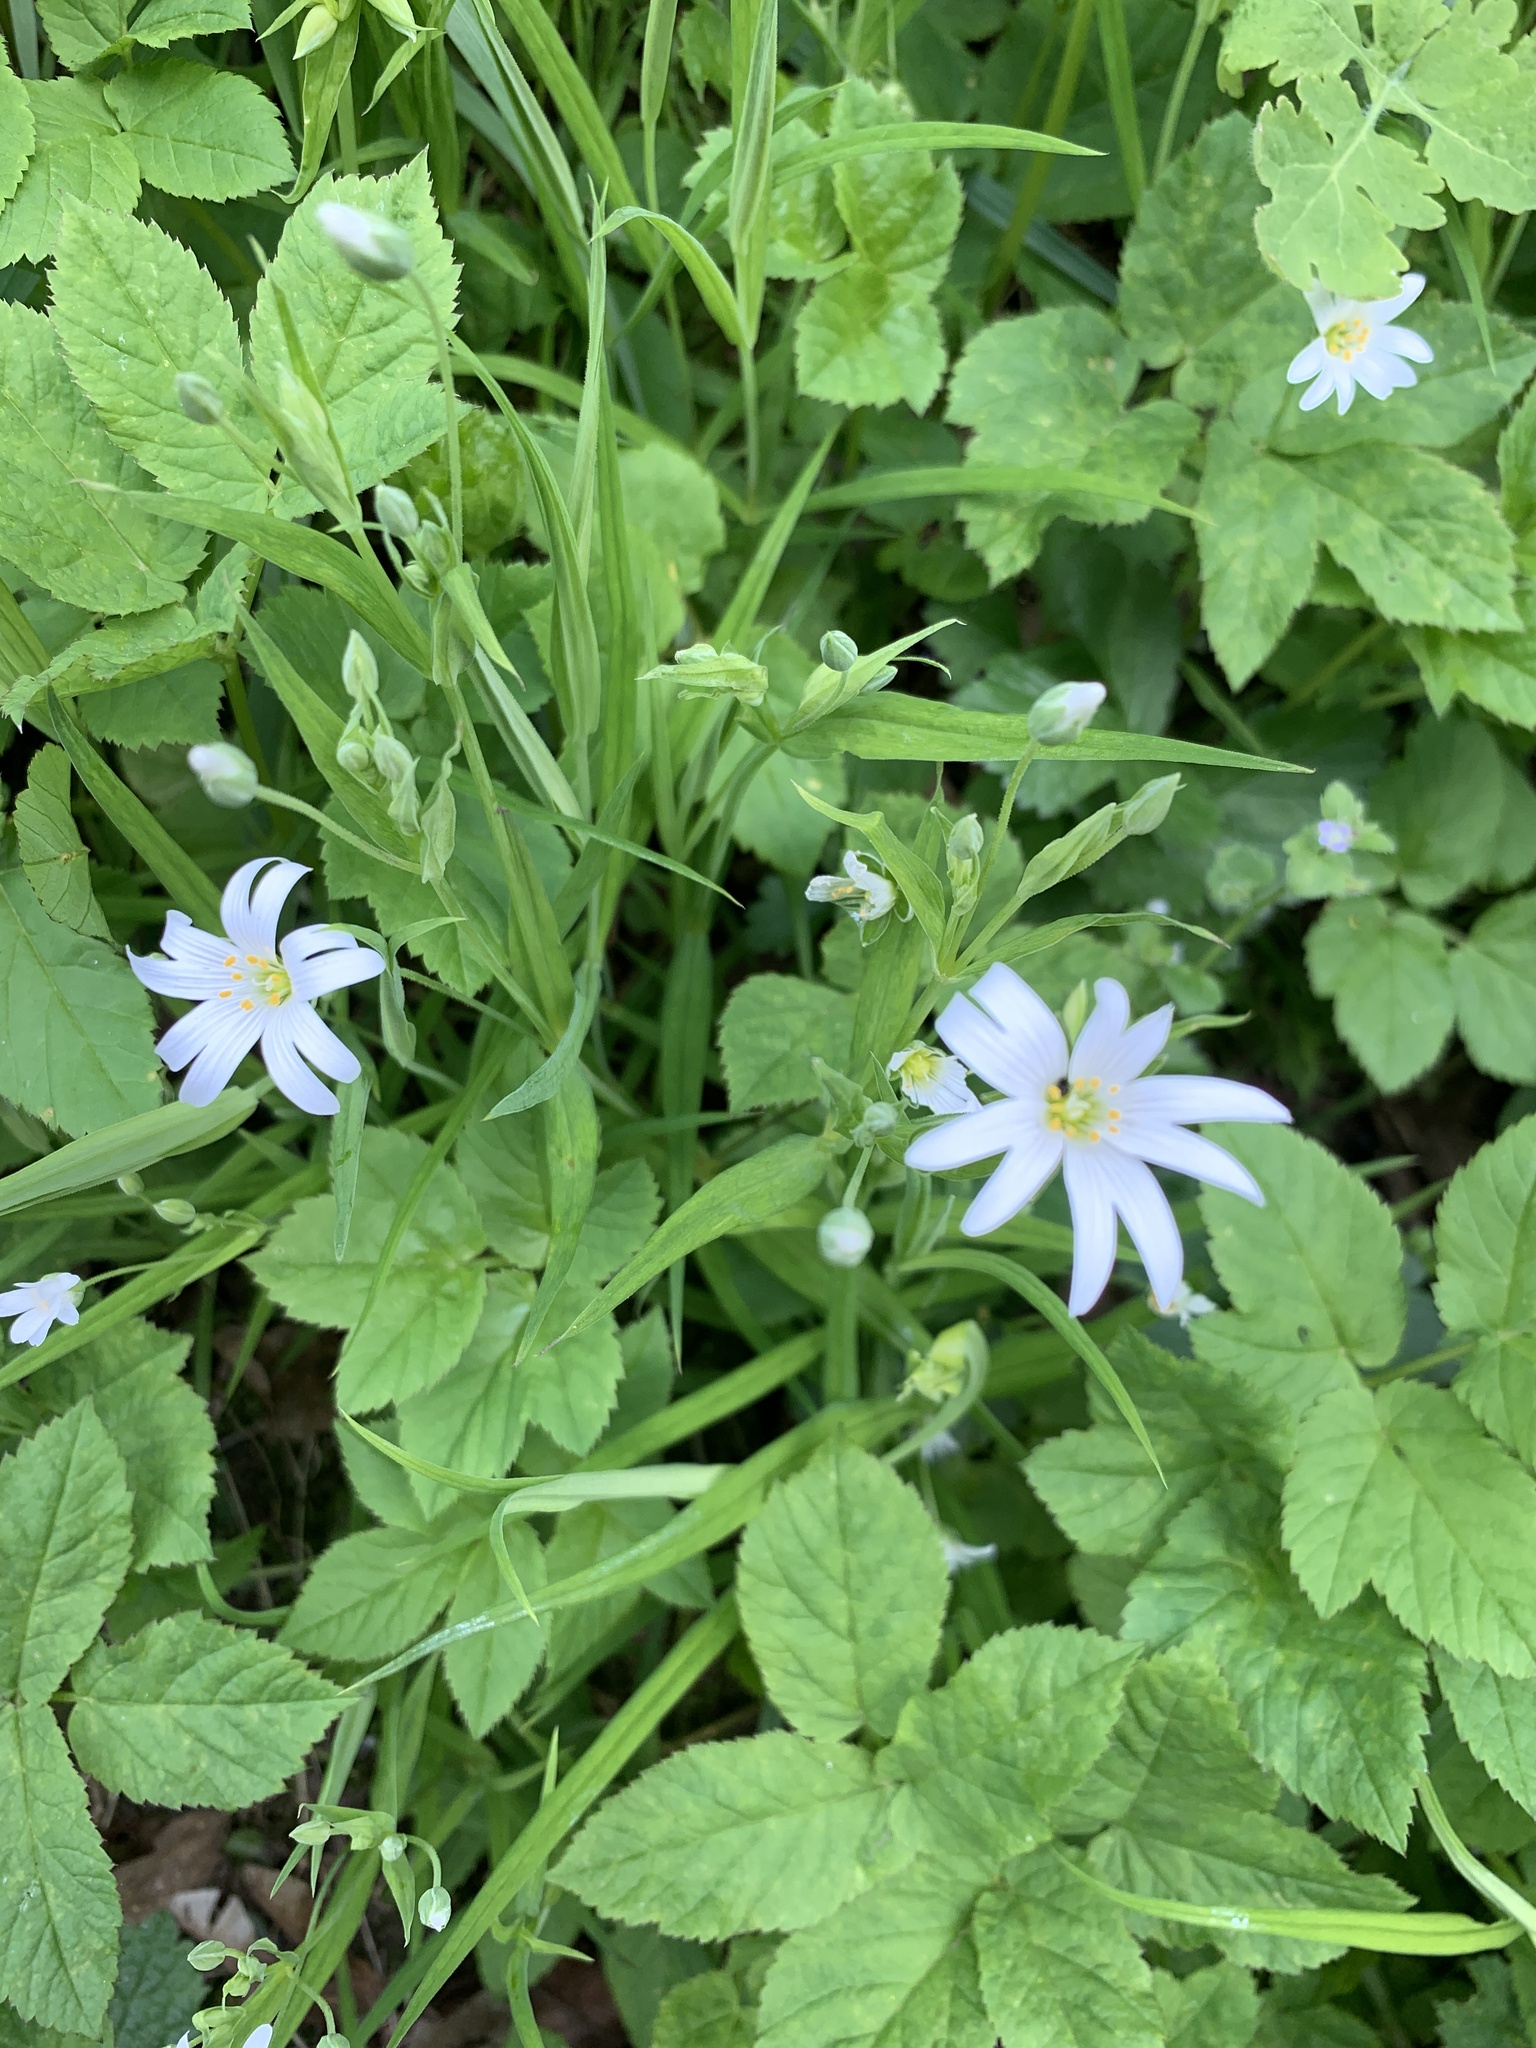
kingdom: Plantae
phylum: Tracheophyta
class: Magnoliopsida
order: Caryophyllales
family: Caryophyllaceae
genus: Rabelera
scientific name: Rabelera holostea
